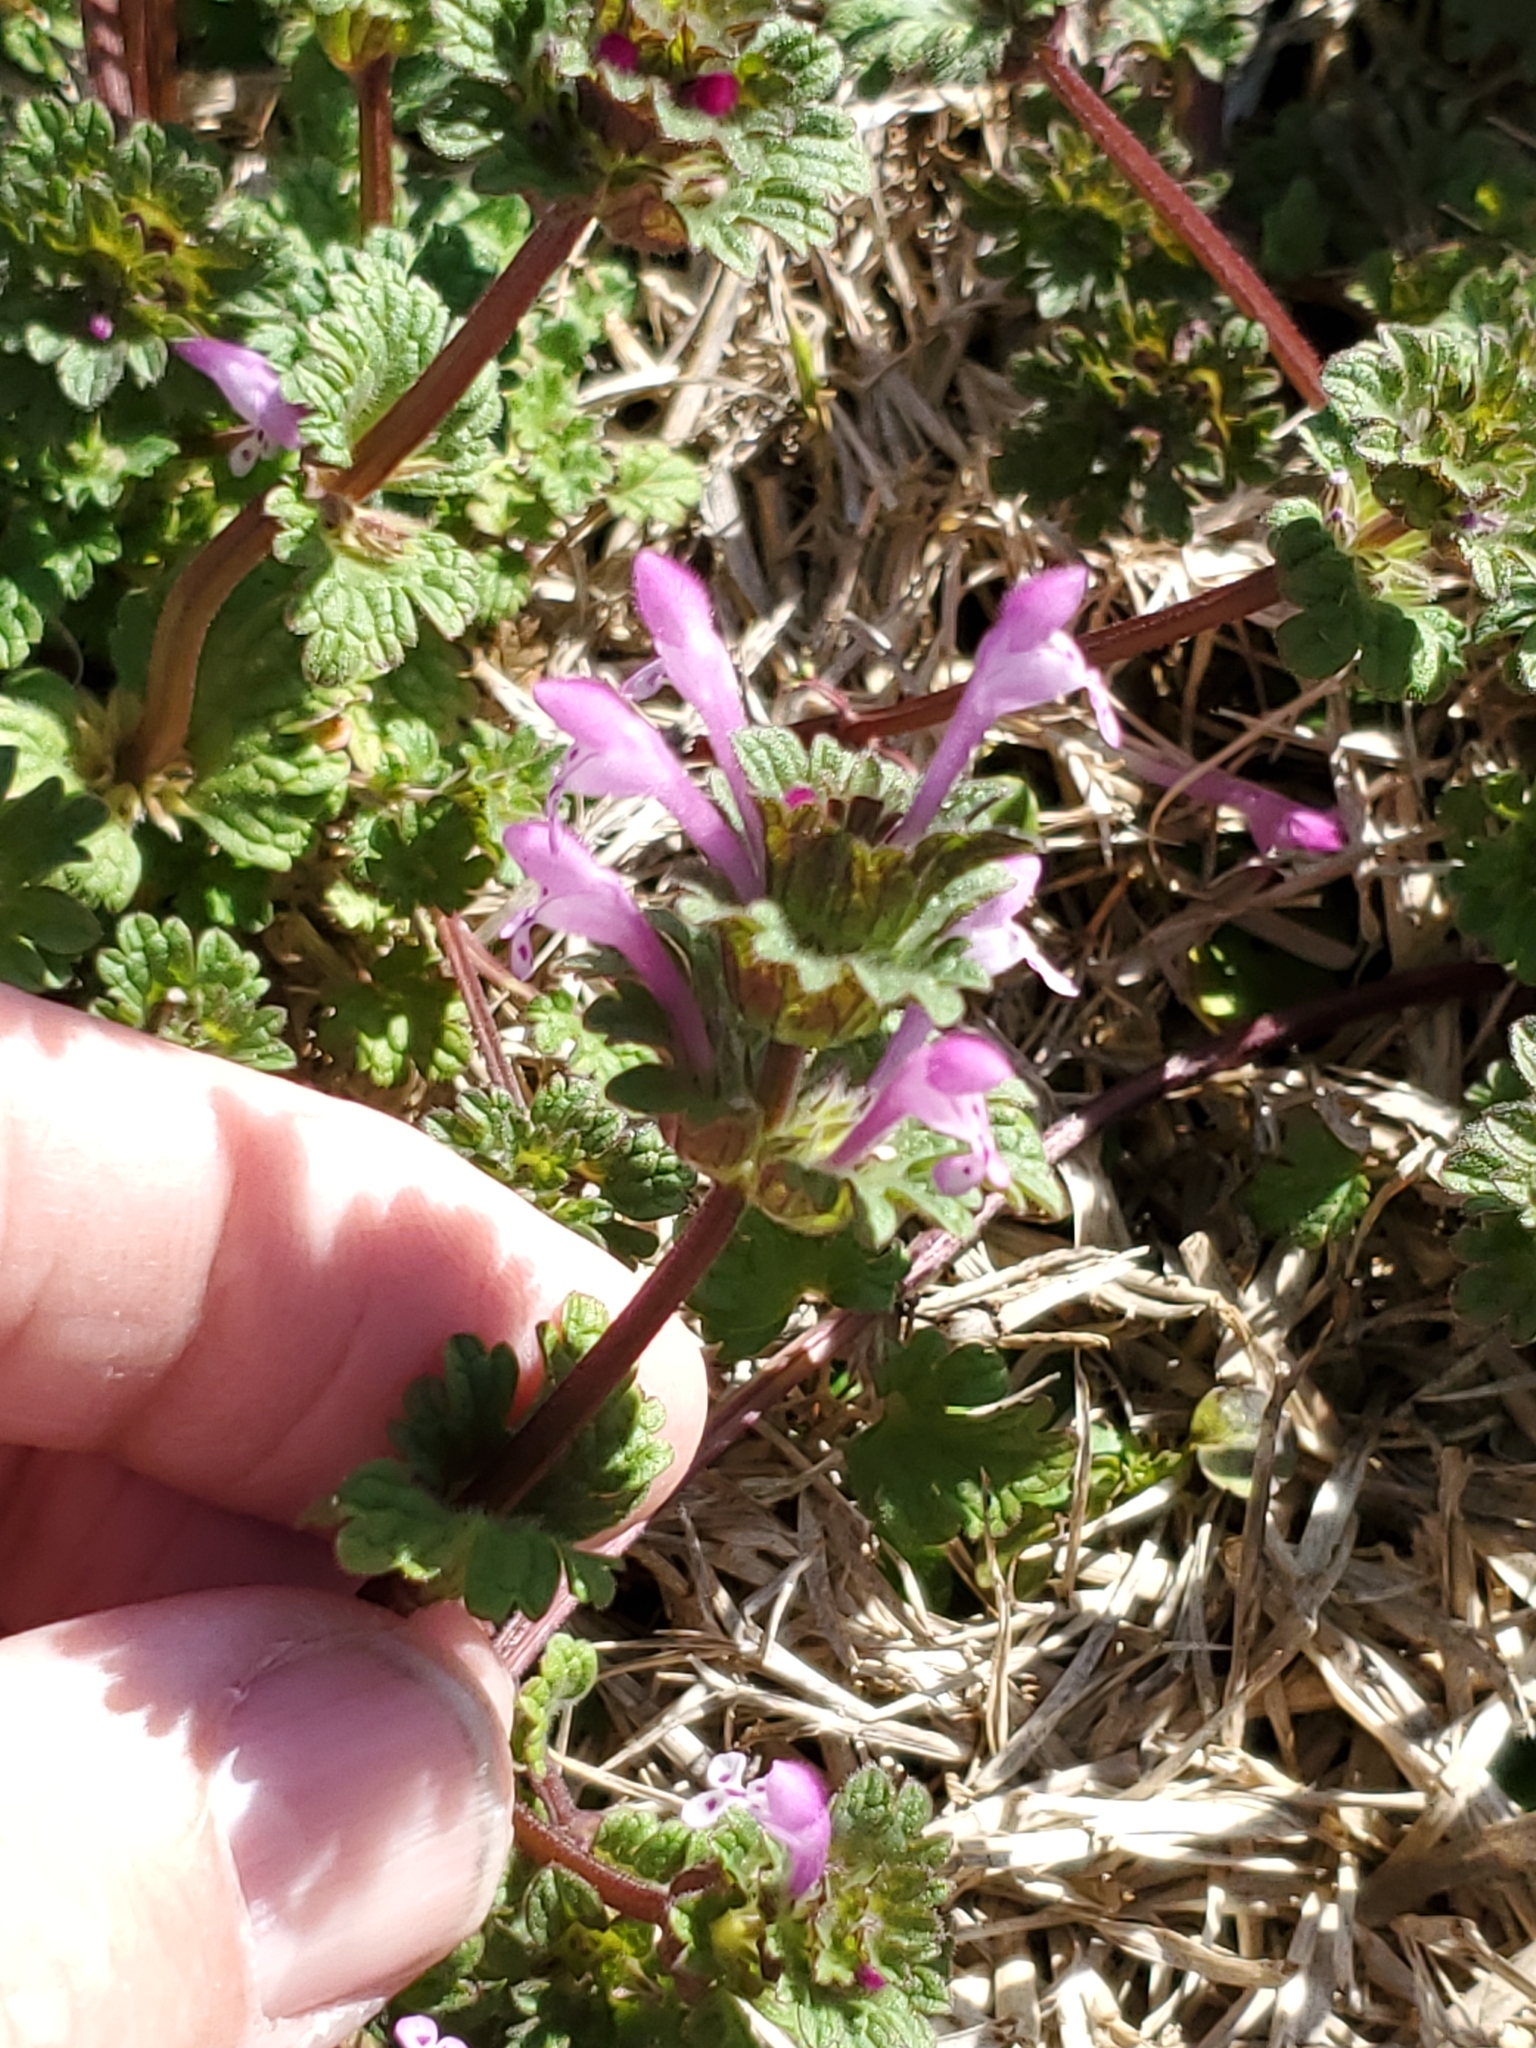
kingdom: Plantae
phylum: Tracheophyta
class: Magnoliopsida
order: Lamiales
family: Lamiaceae
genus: Lamium
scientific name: Lamium amplexicaule
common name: Henbit dead-nettle
